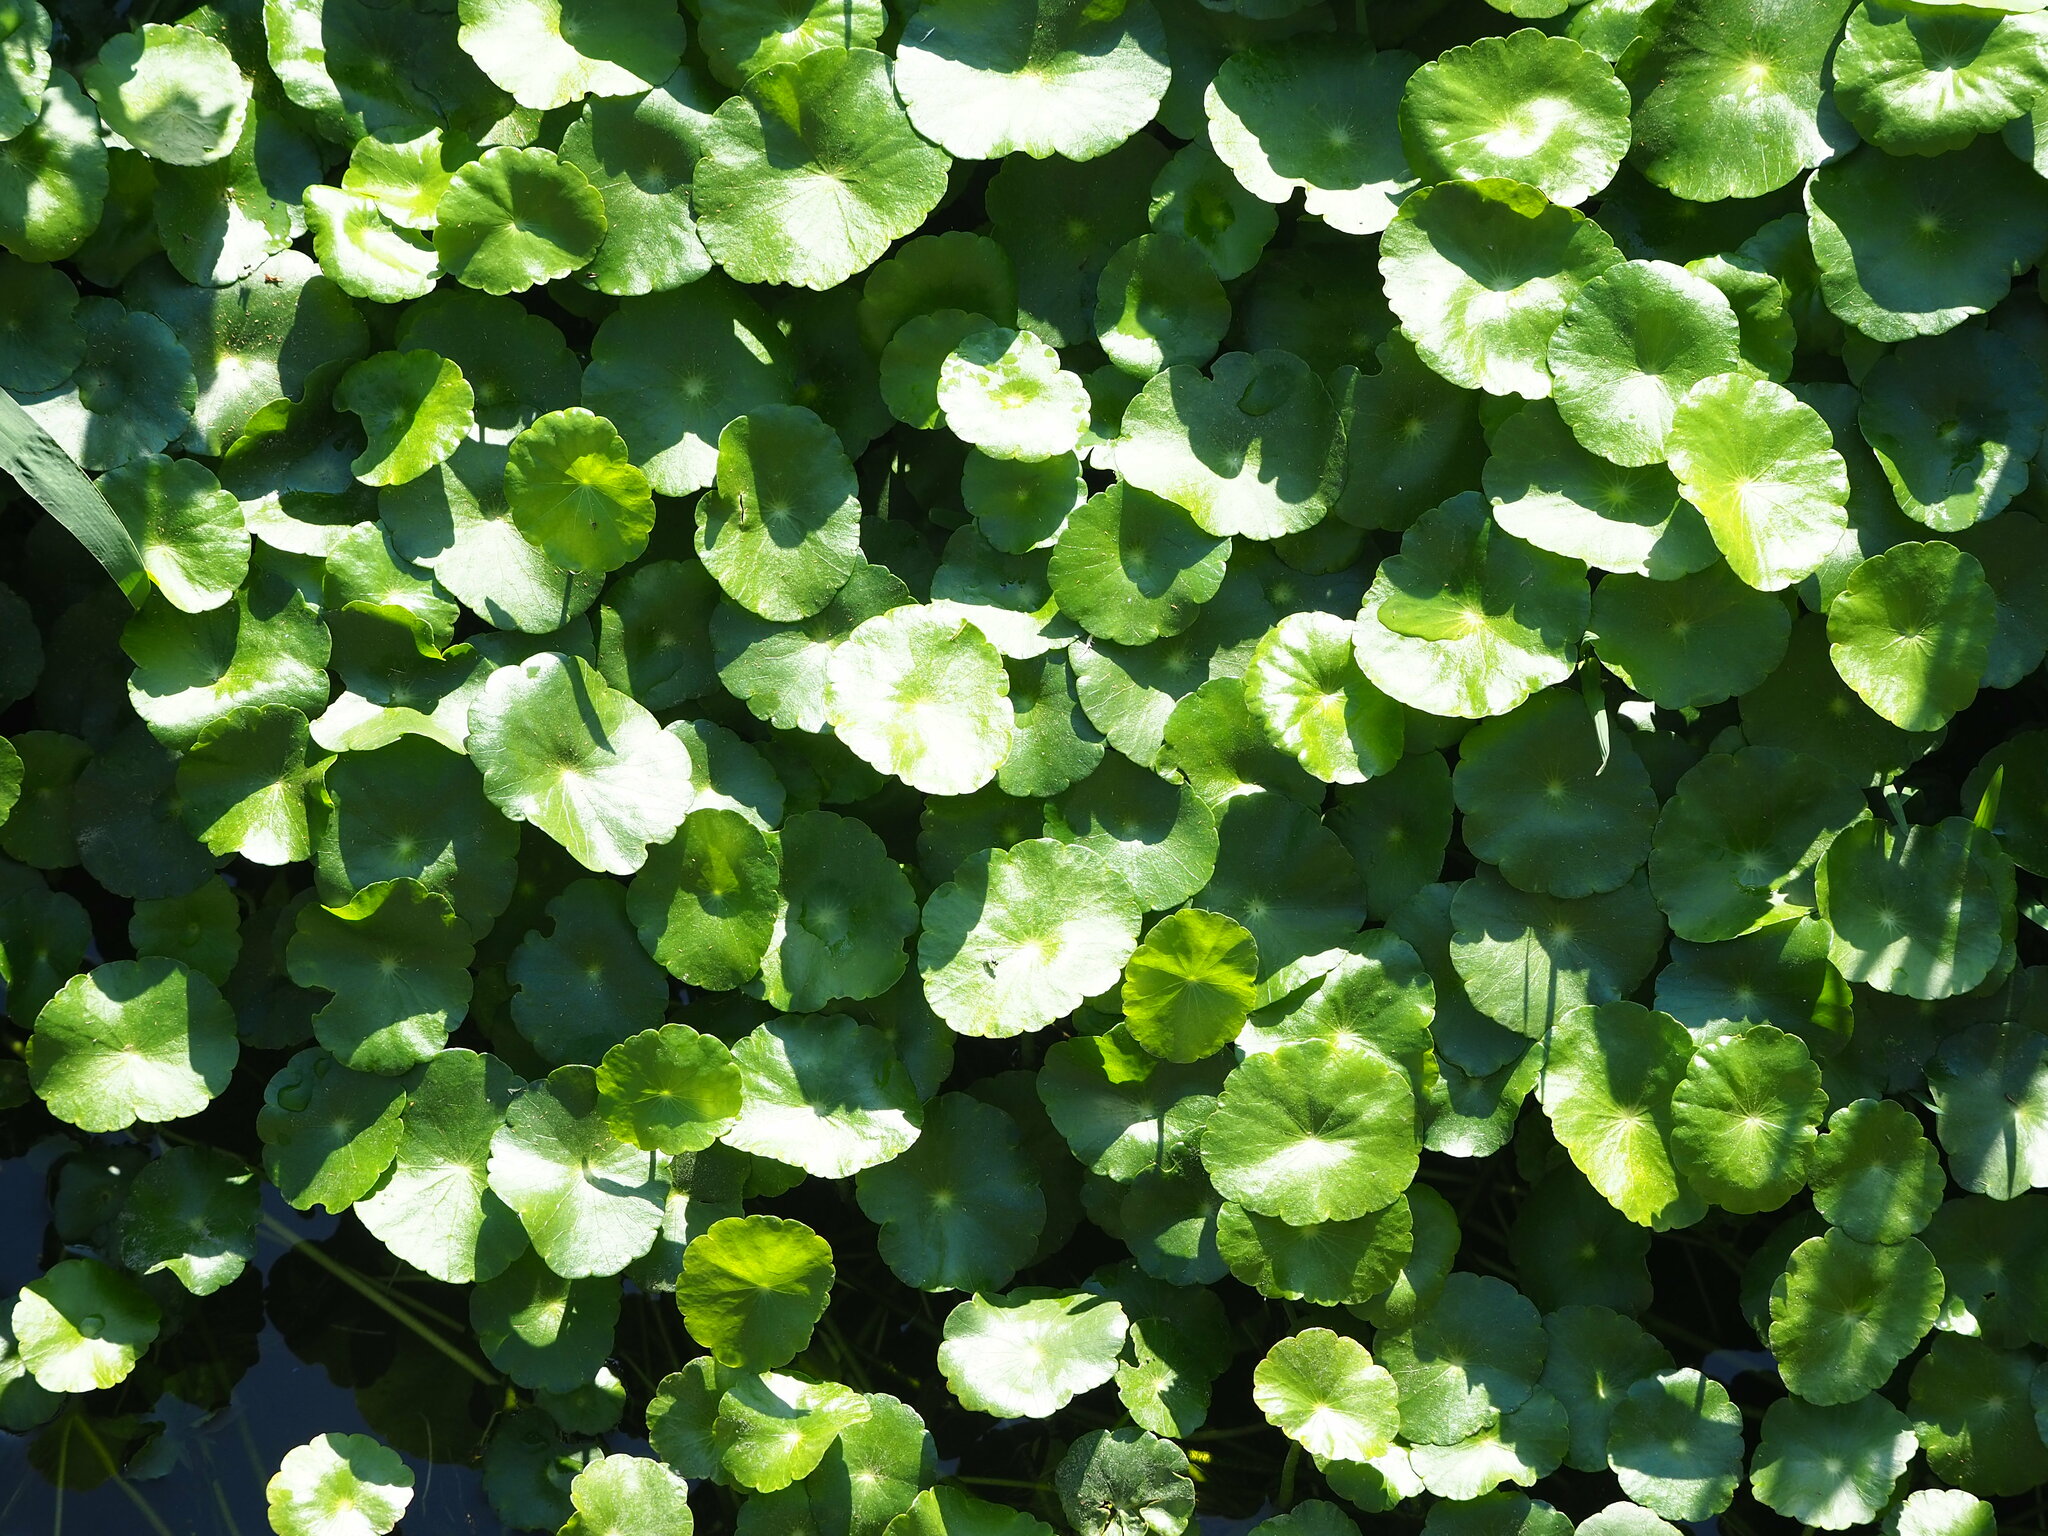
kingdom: Plantae
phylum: Tracheophyta
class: Magnoliopsida
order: Apiales
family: Araliaceae
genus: Hydrocotyle
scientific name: Hydrocotyle verticillata
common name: Whorled marshpennywort
